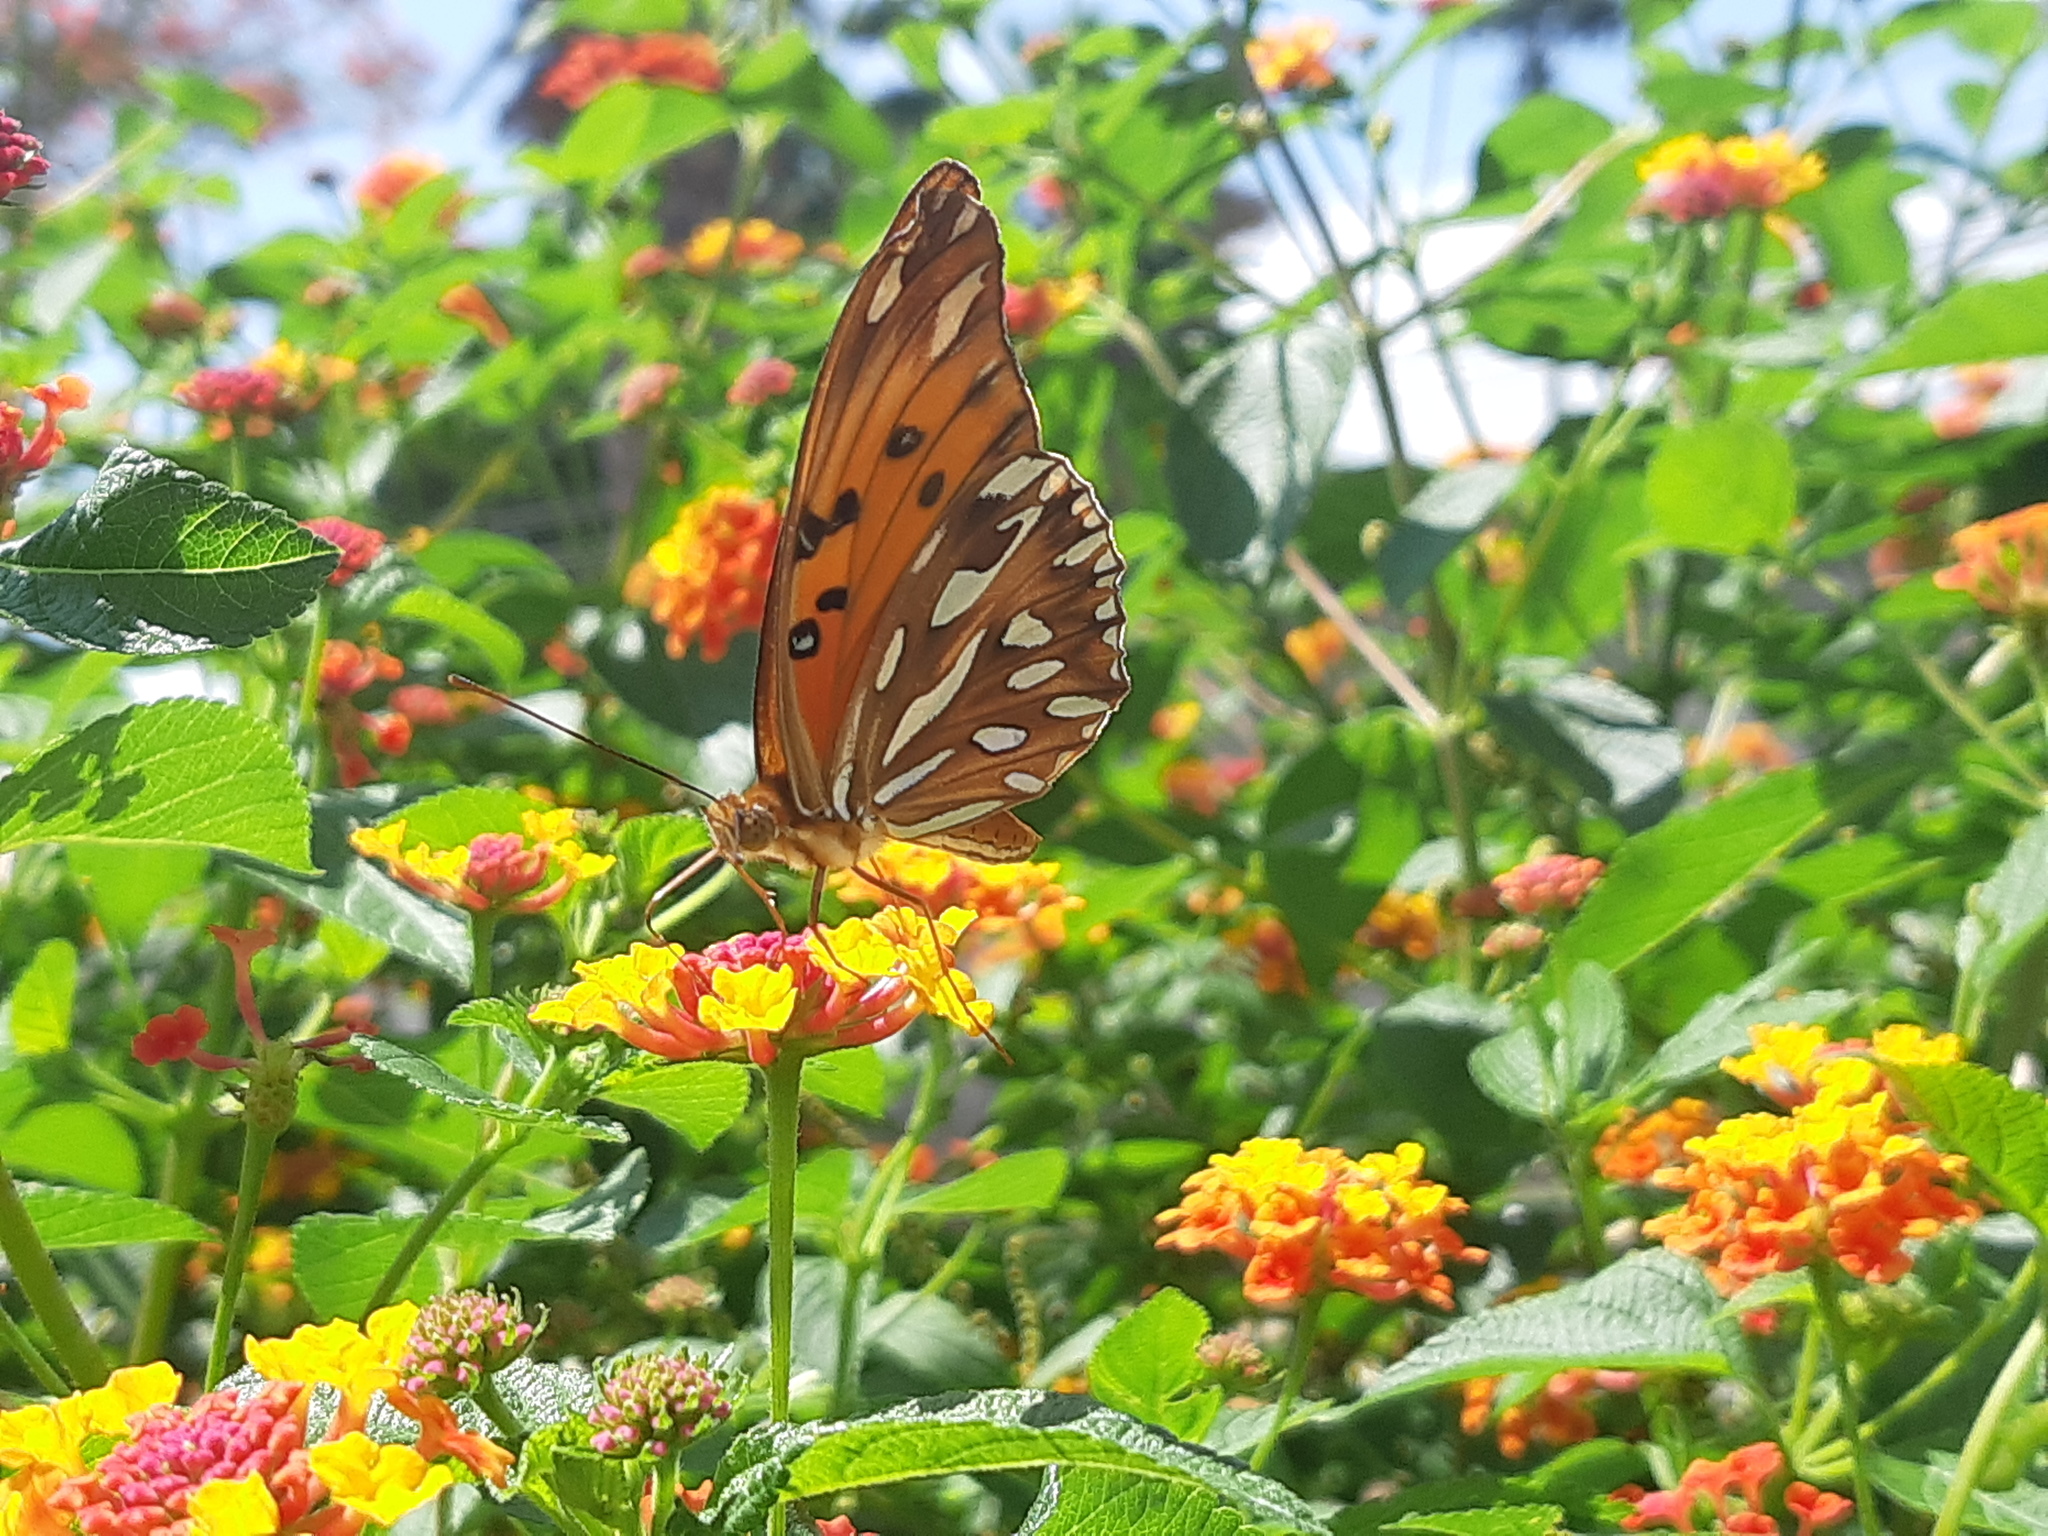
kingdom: Animalia
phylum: Arthropoda
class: Insecta
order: Lepidoptera
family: Nymphalidae
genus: Dione
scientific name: Dione vanillae
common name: Gulf fritillary
